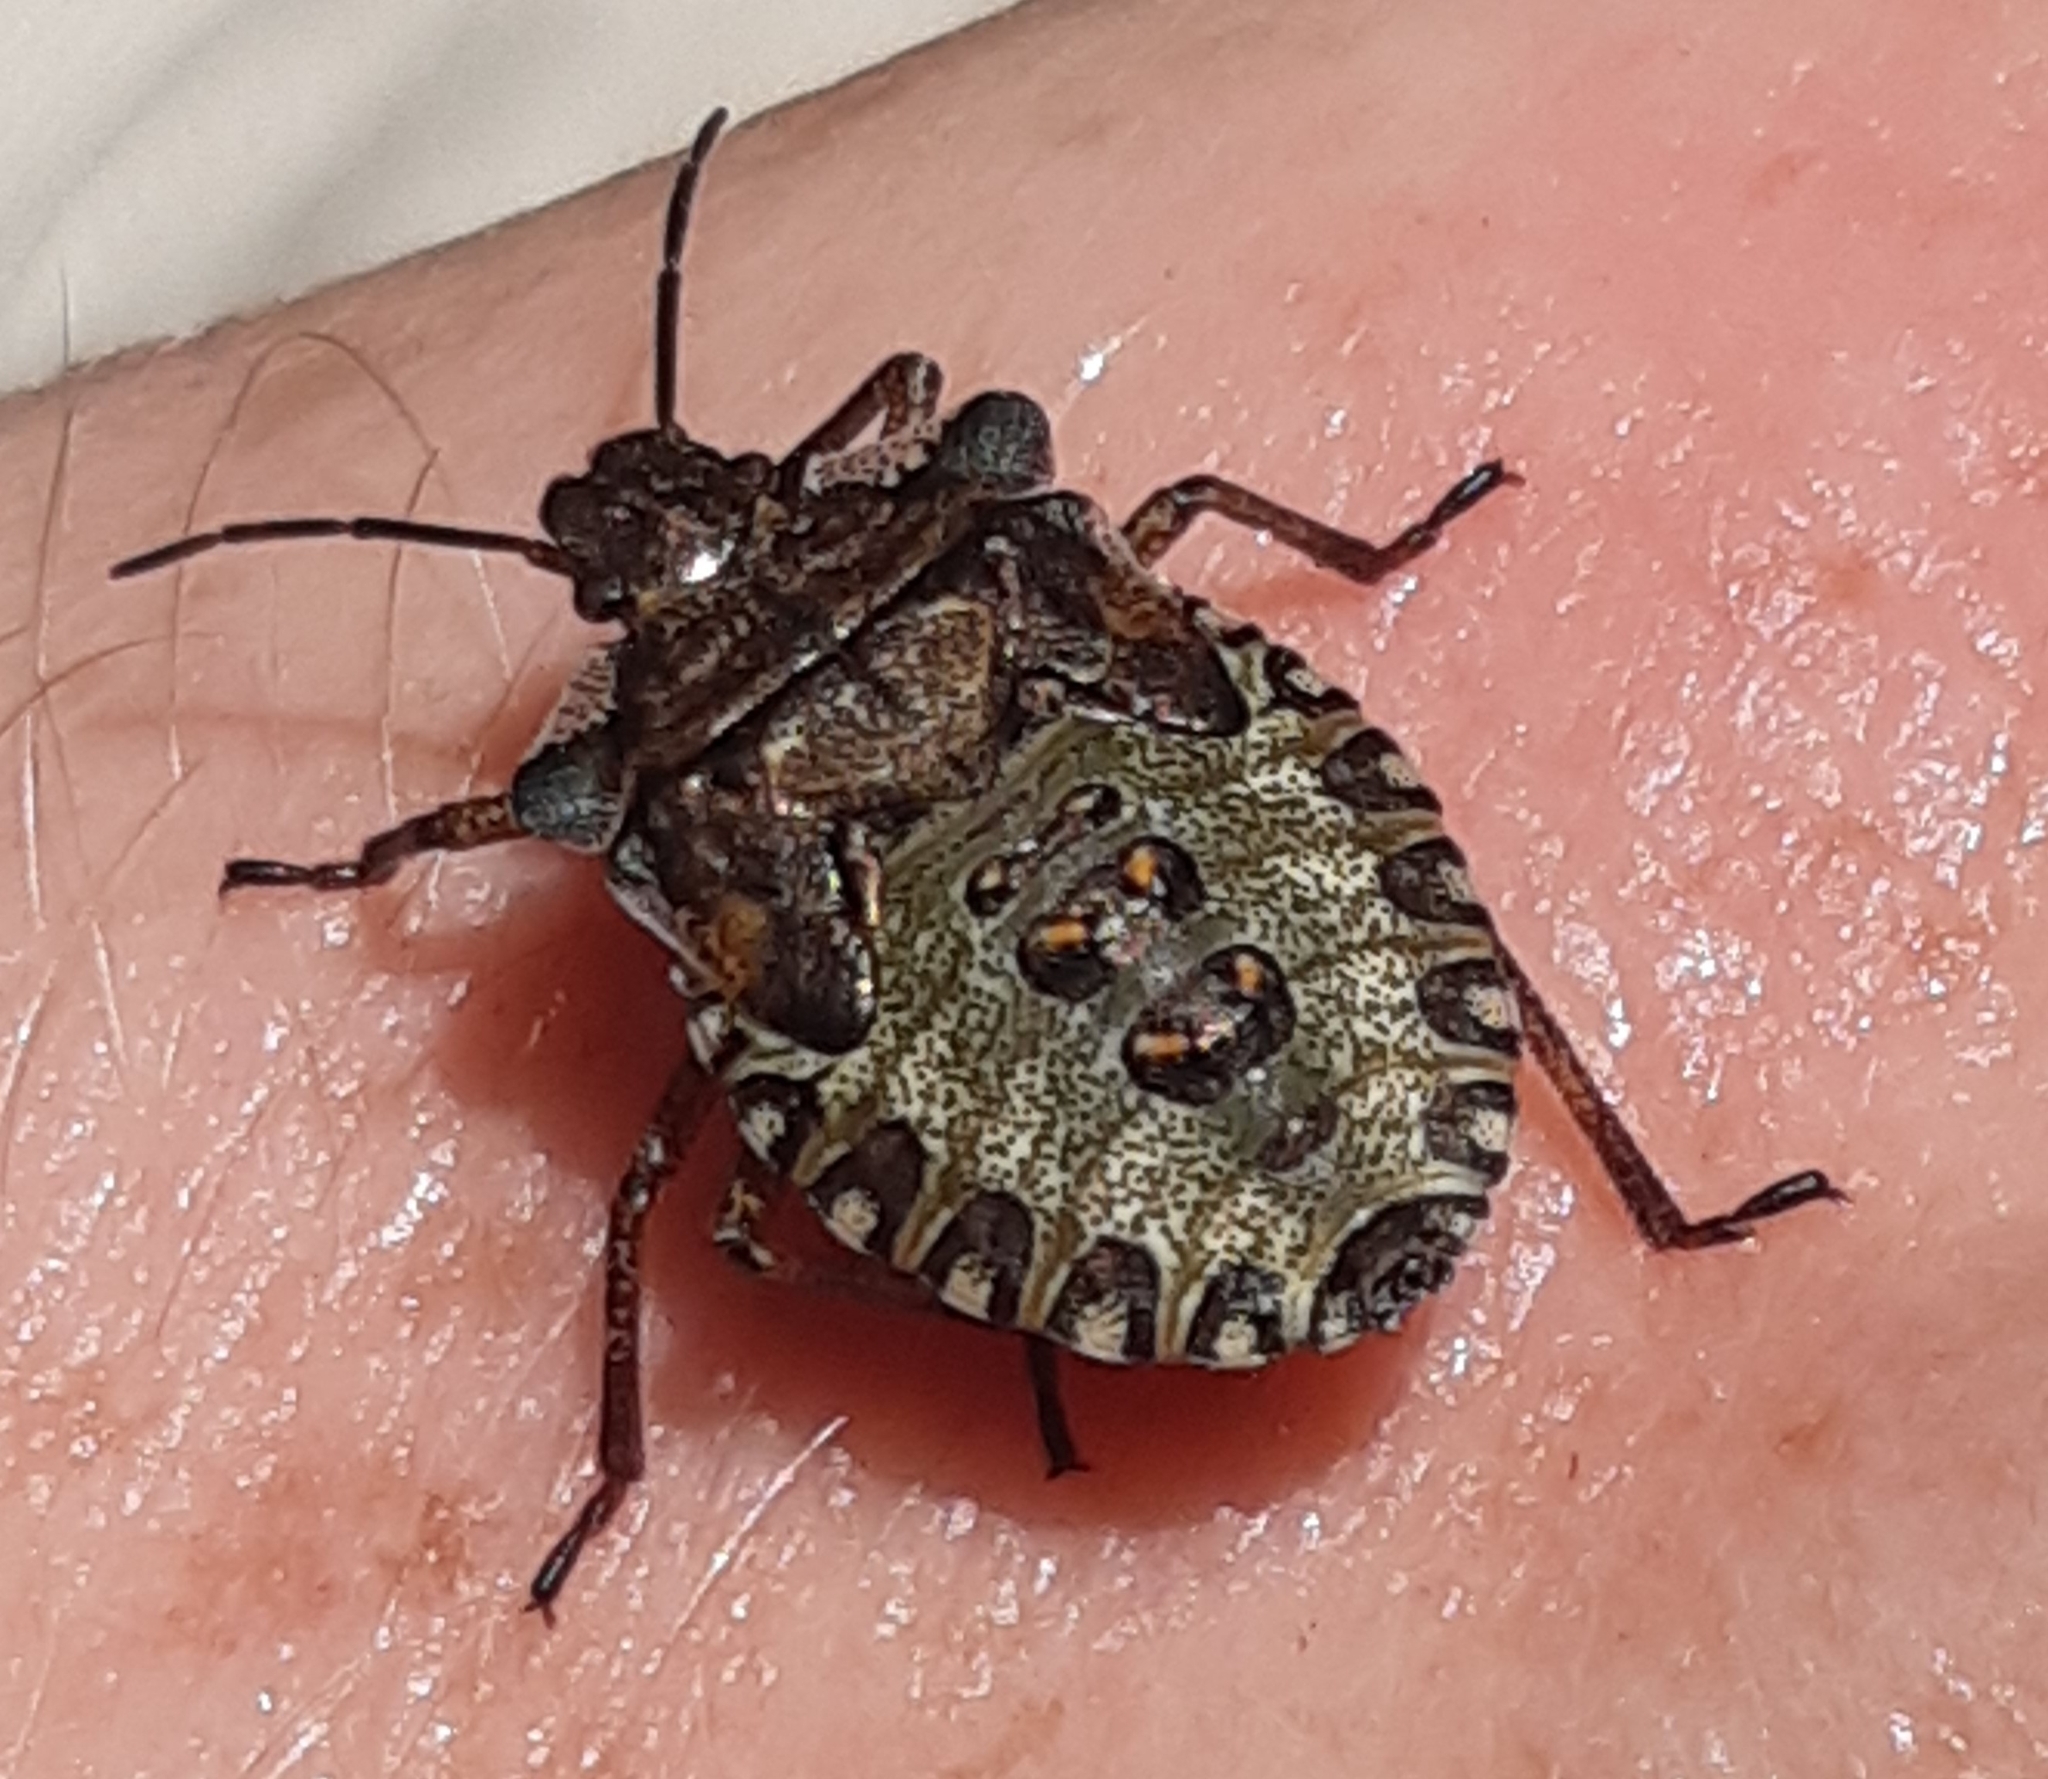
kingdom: Animalia
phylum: Arthropoda
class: Insecta
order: Hemiptera
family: Pentatomidae
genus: Pentatoma
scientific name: Pentatoma rufipes
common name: Forest bug
